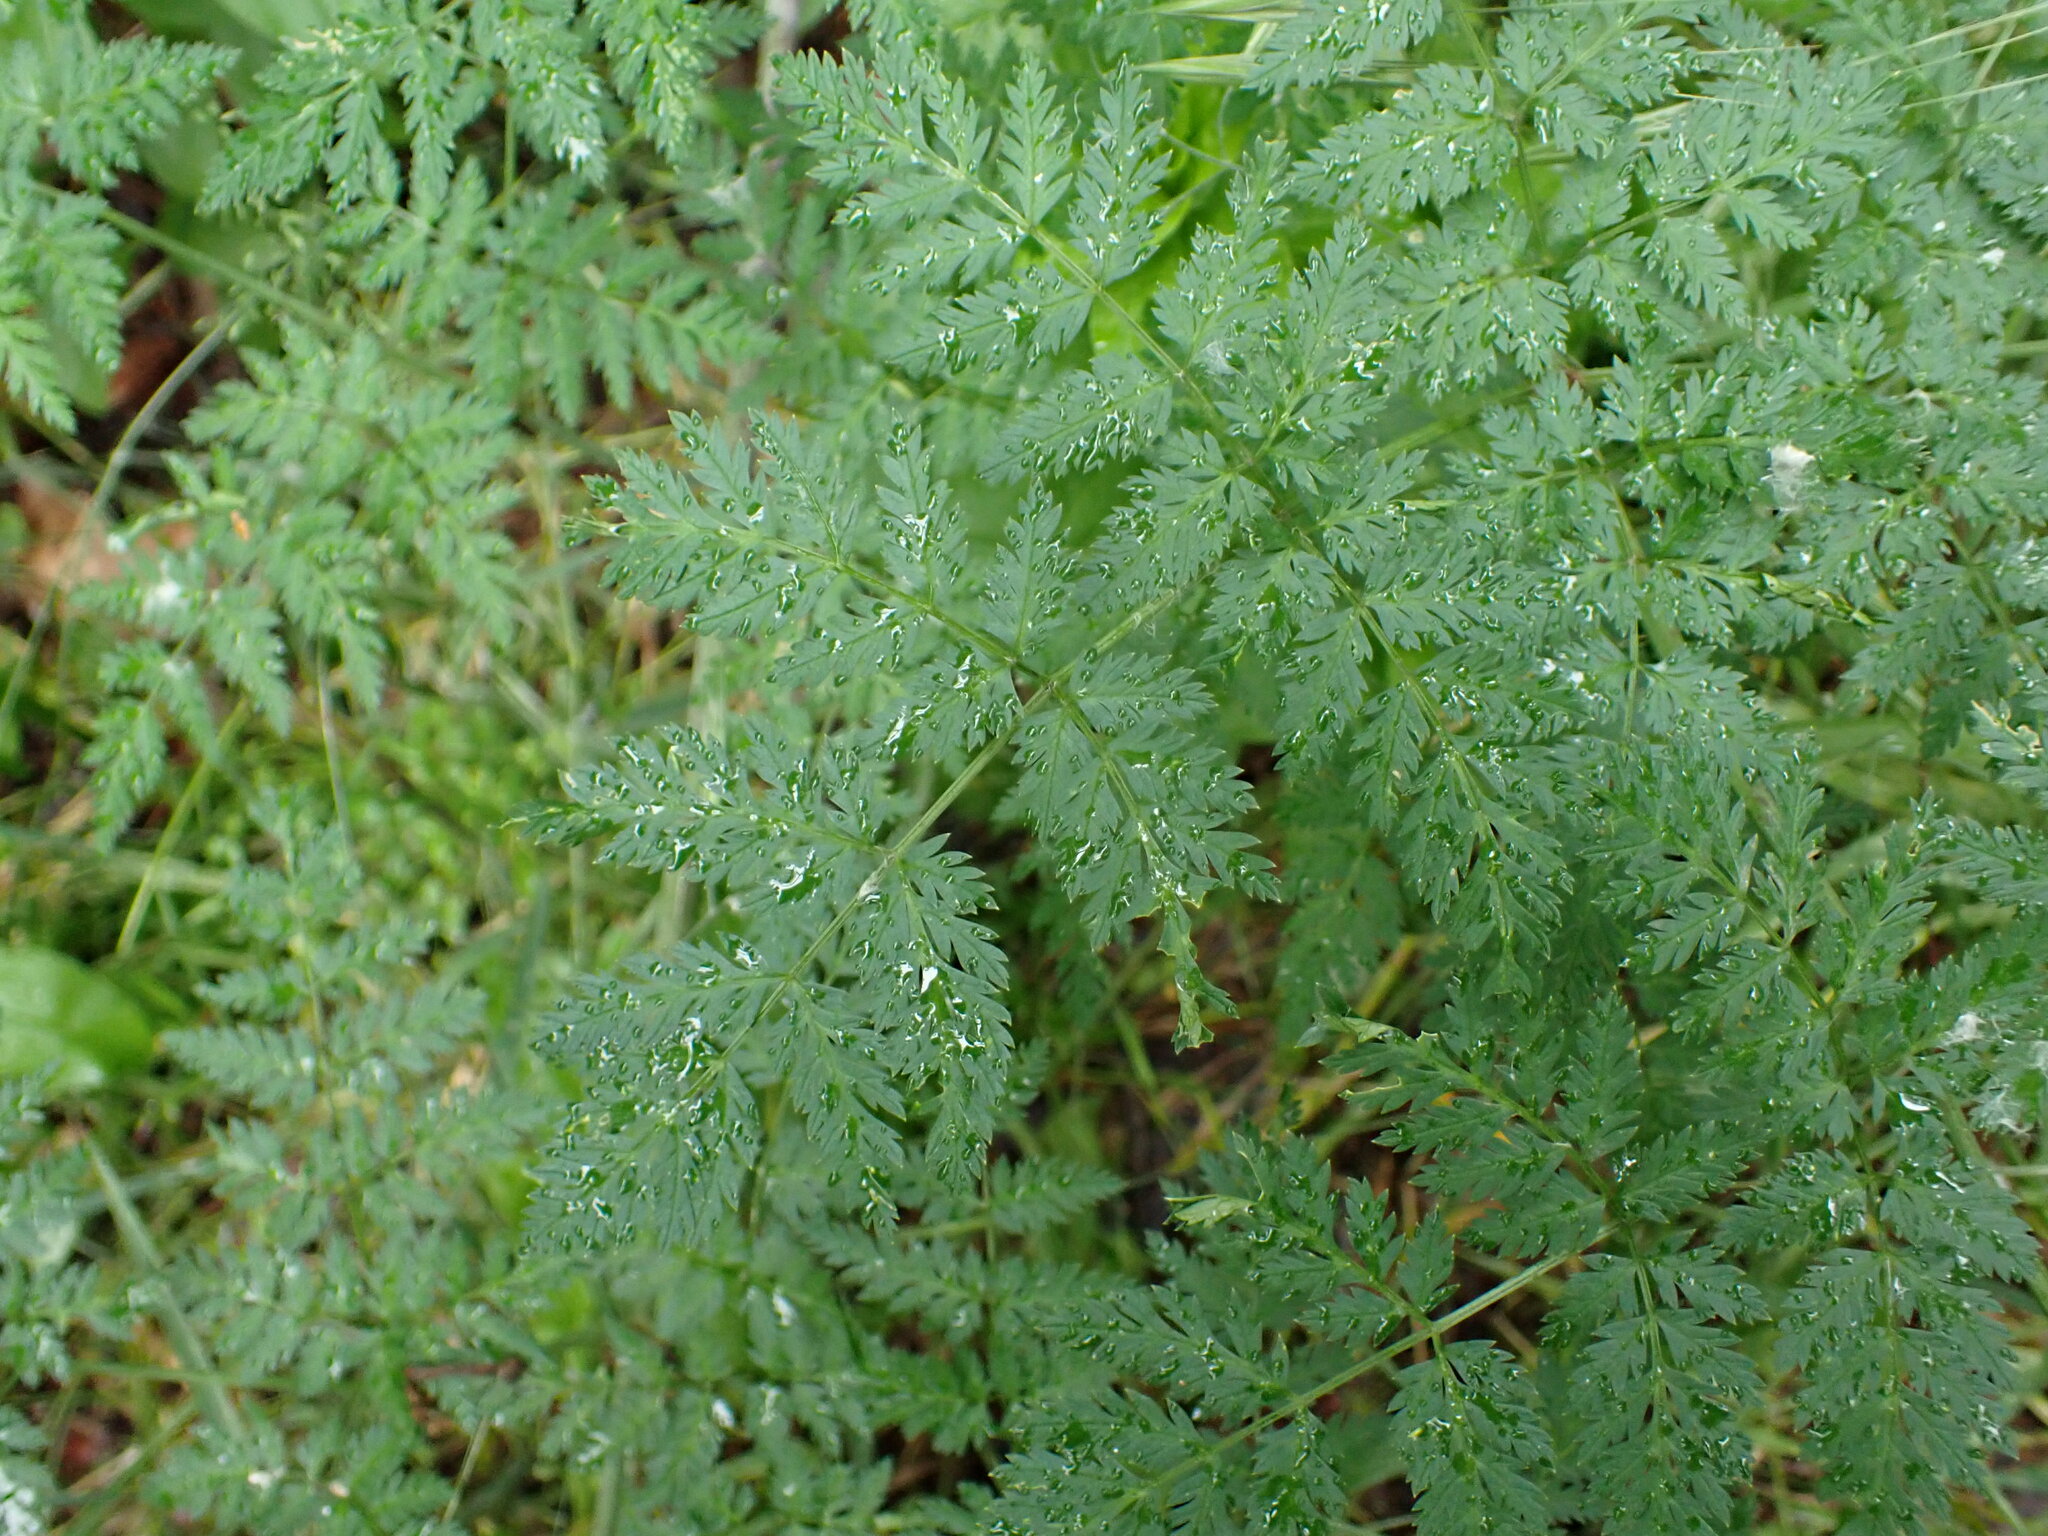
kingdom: Plantae
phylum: Tracheophyta
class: Magnoliopsida
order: Apiales
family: Apiaceae
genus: Conium
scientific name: Conium maculatum
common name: Hemlock
